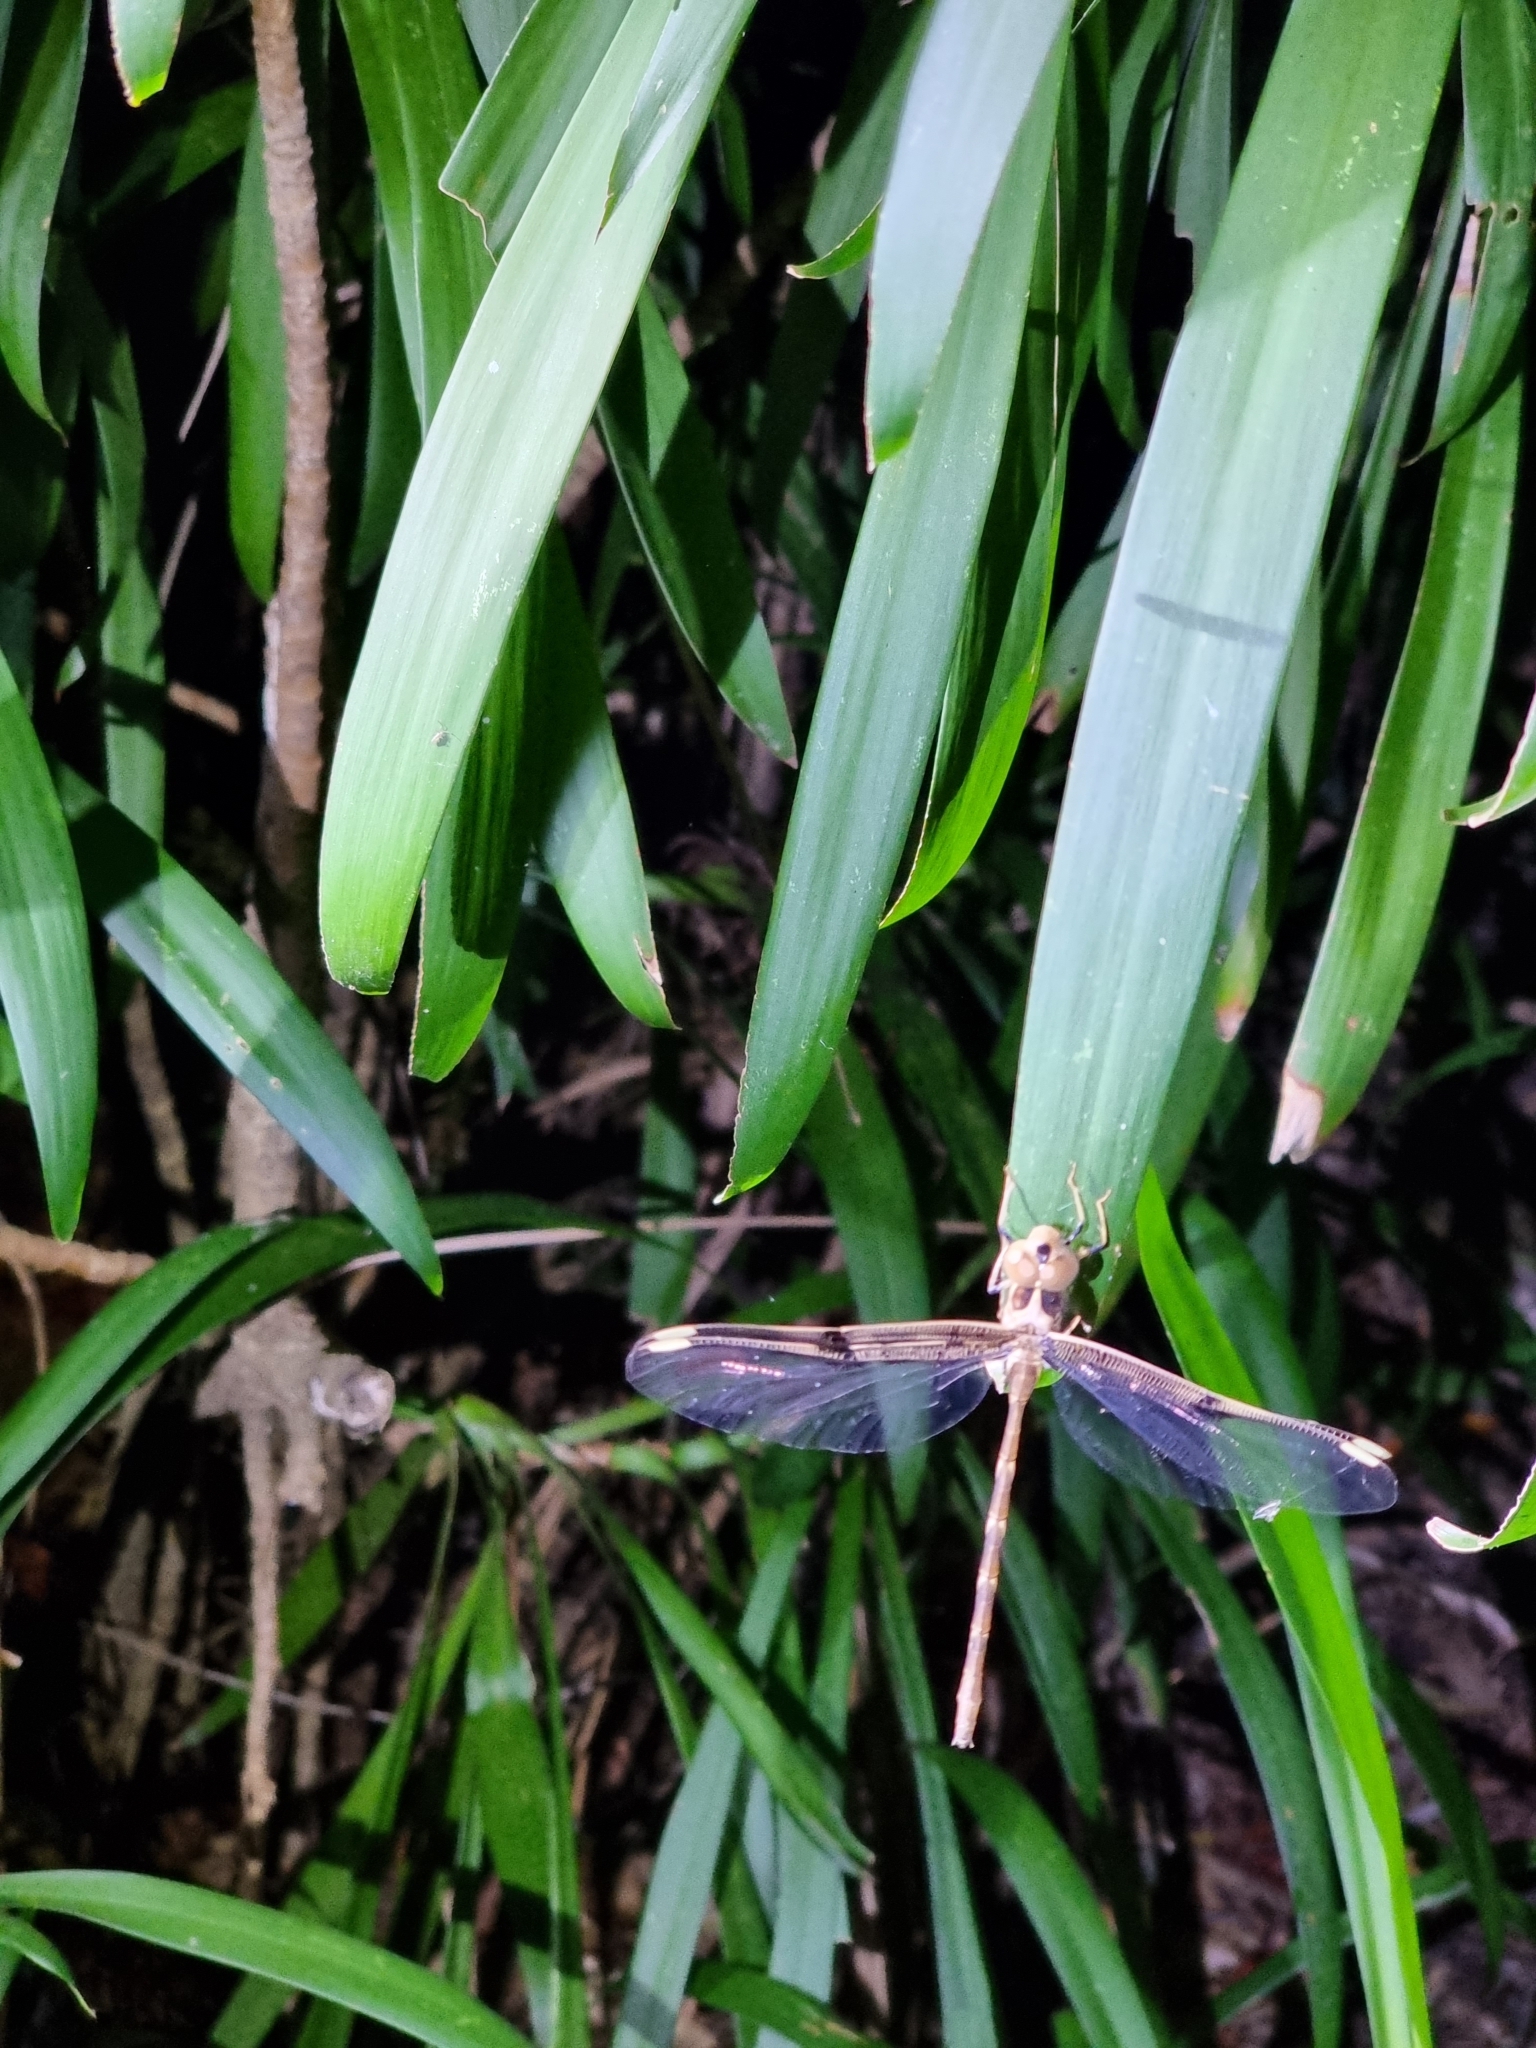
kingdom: Animalia
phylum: Arthropoda
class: Insecta
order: Odonata
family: Aeshnidae
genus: Telephlebia
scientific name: Telephlebia cyclops
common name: Northern evening darner
